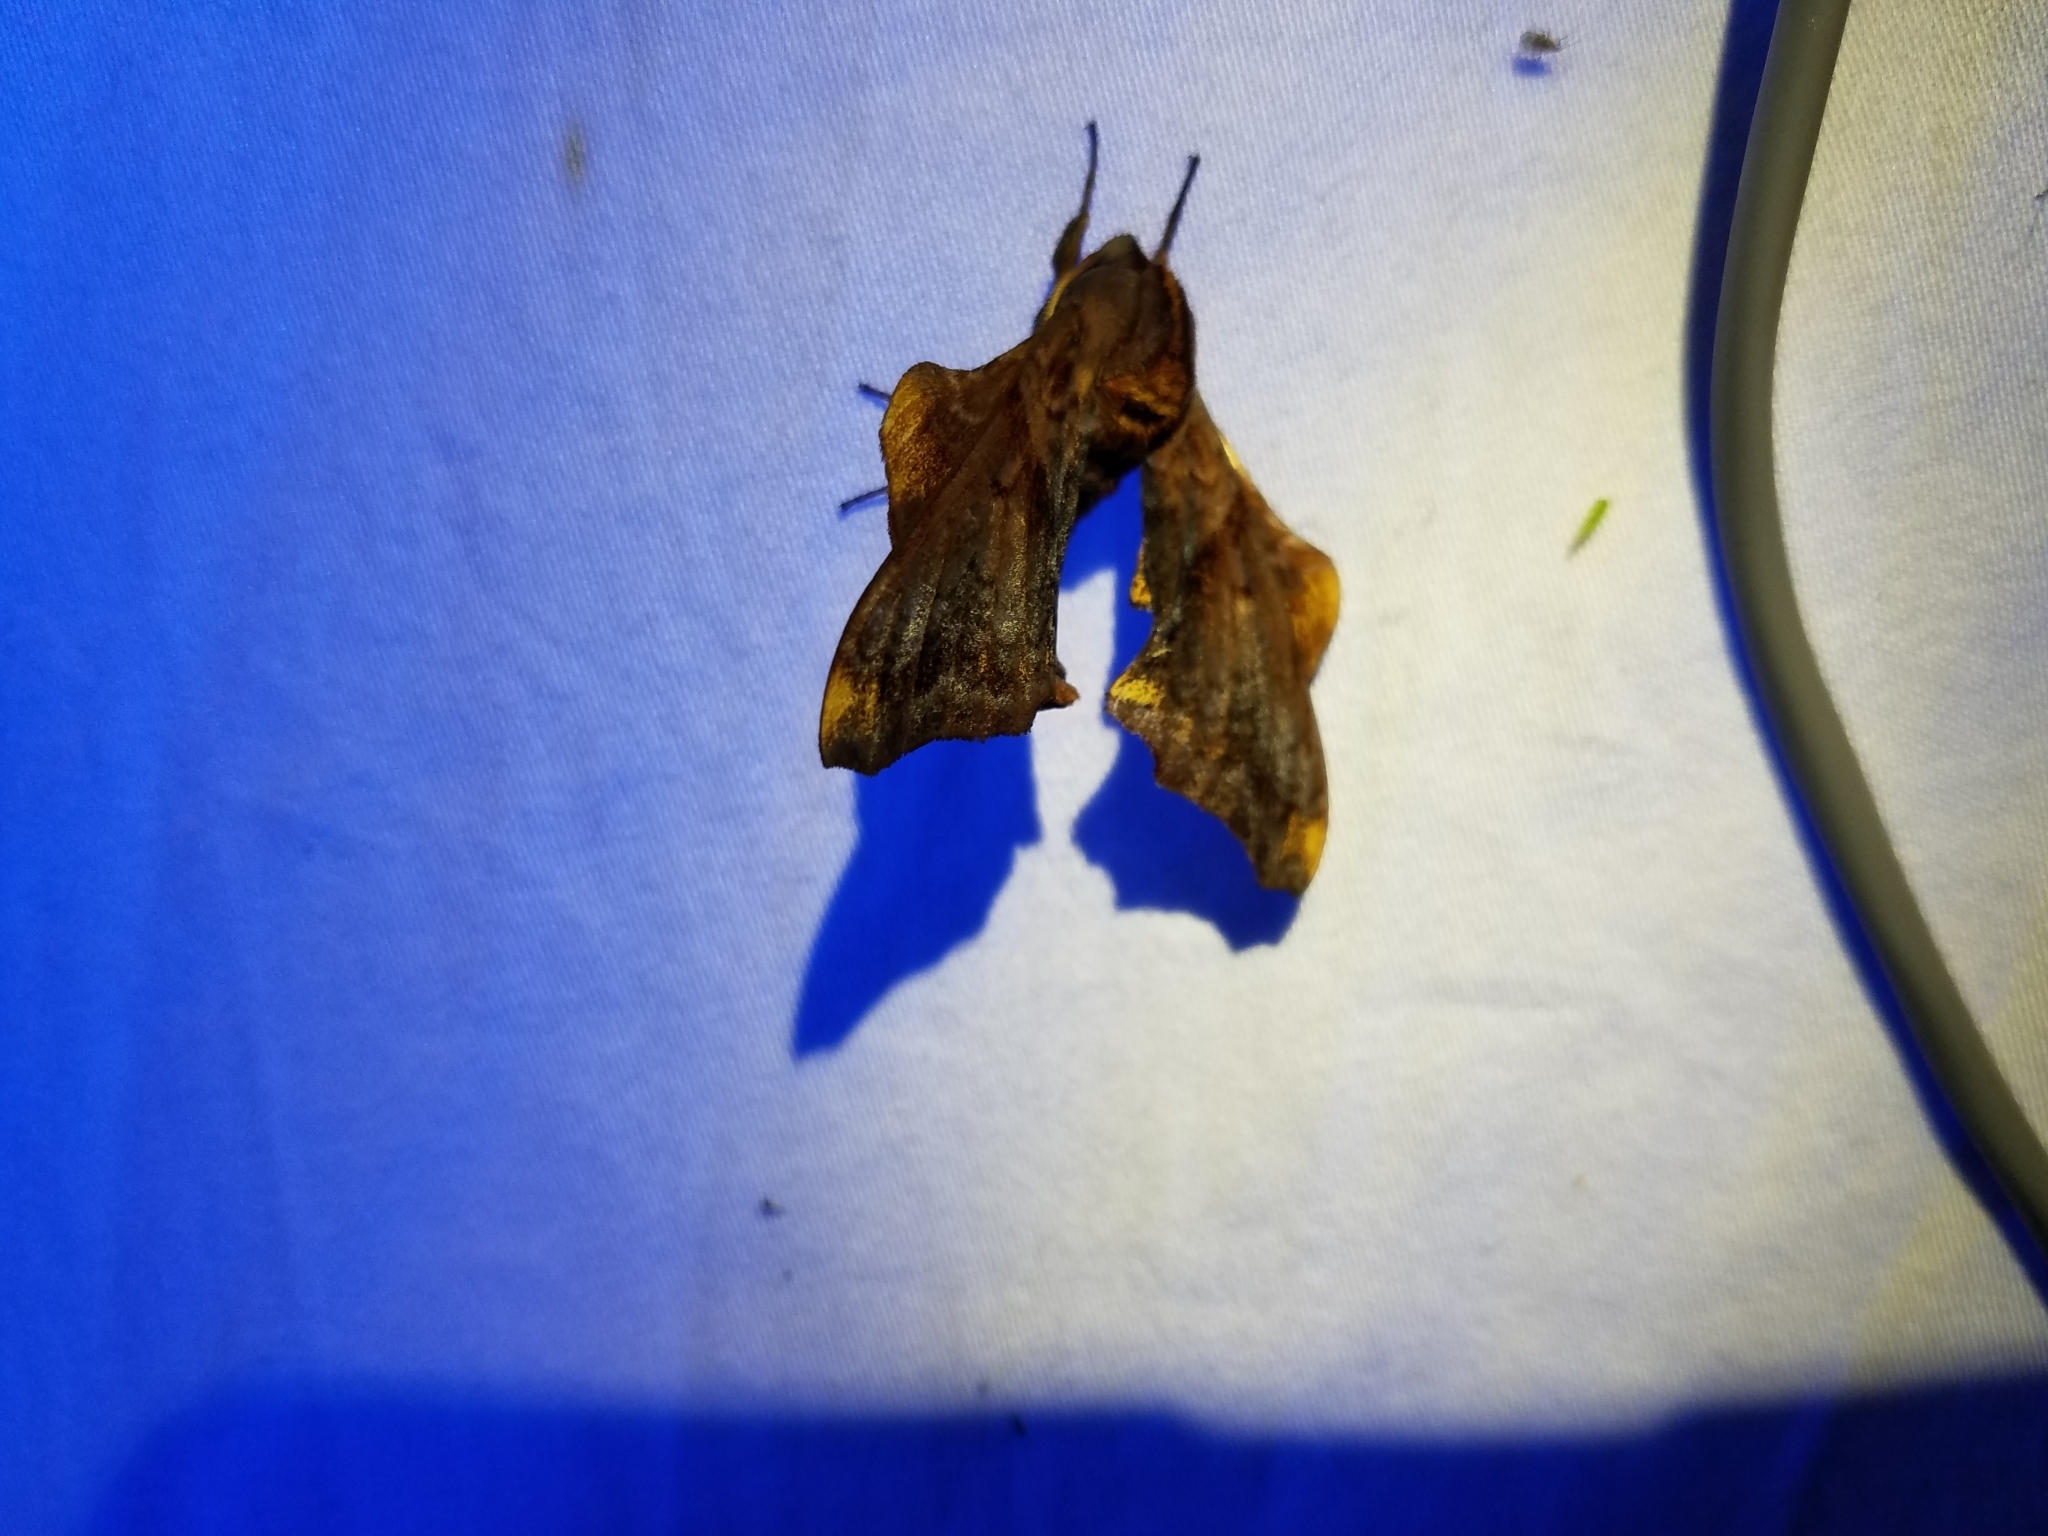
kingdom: Animalia
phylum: Arthropoda
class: Insecta
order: Lepidoptera
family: Sphingidae
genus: Paonias
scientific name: Paonias myops
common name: Small-eyed sphinx
